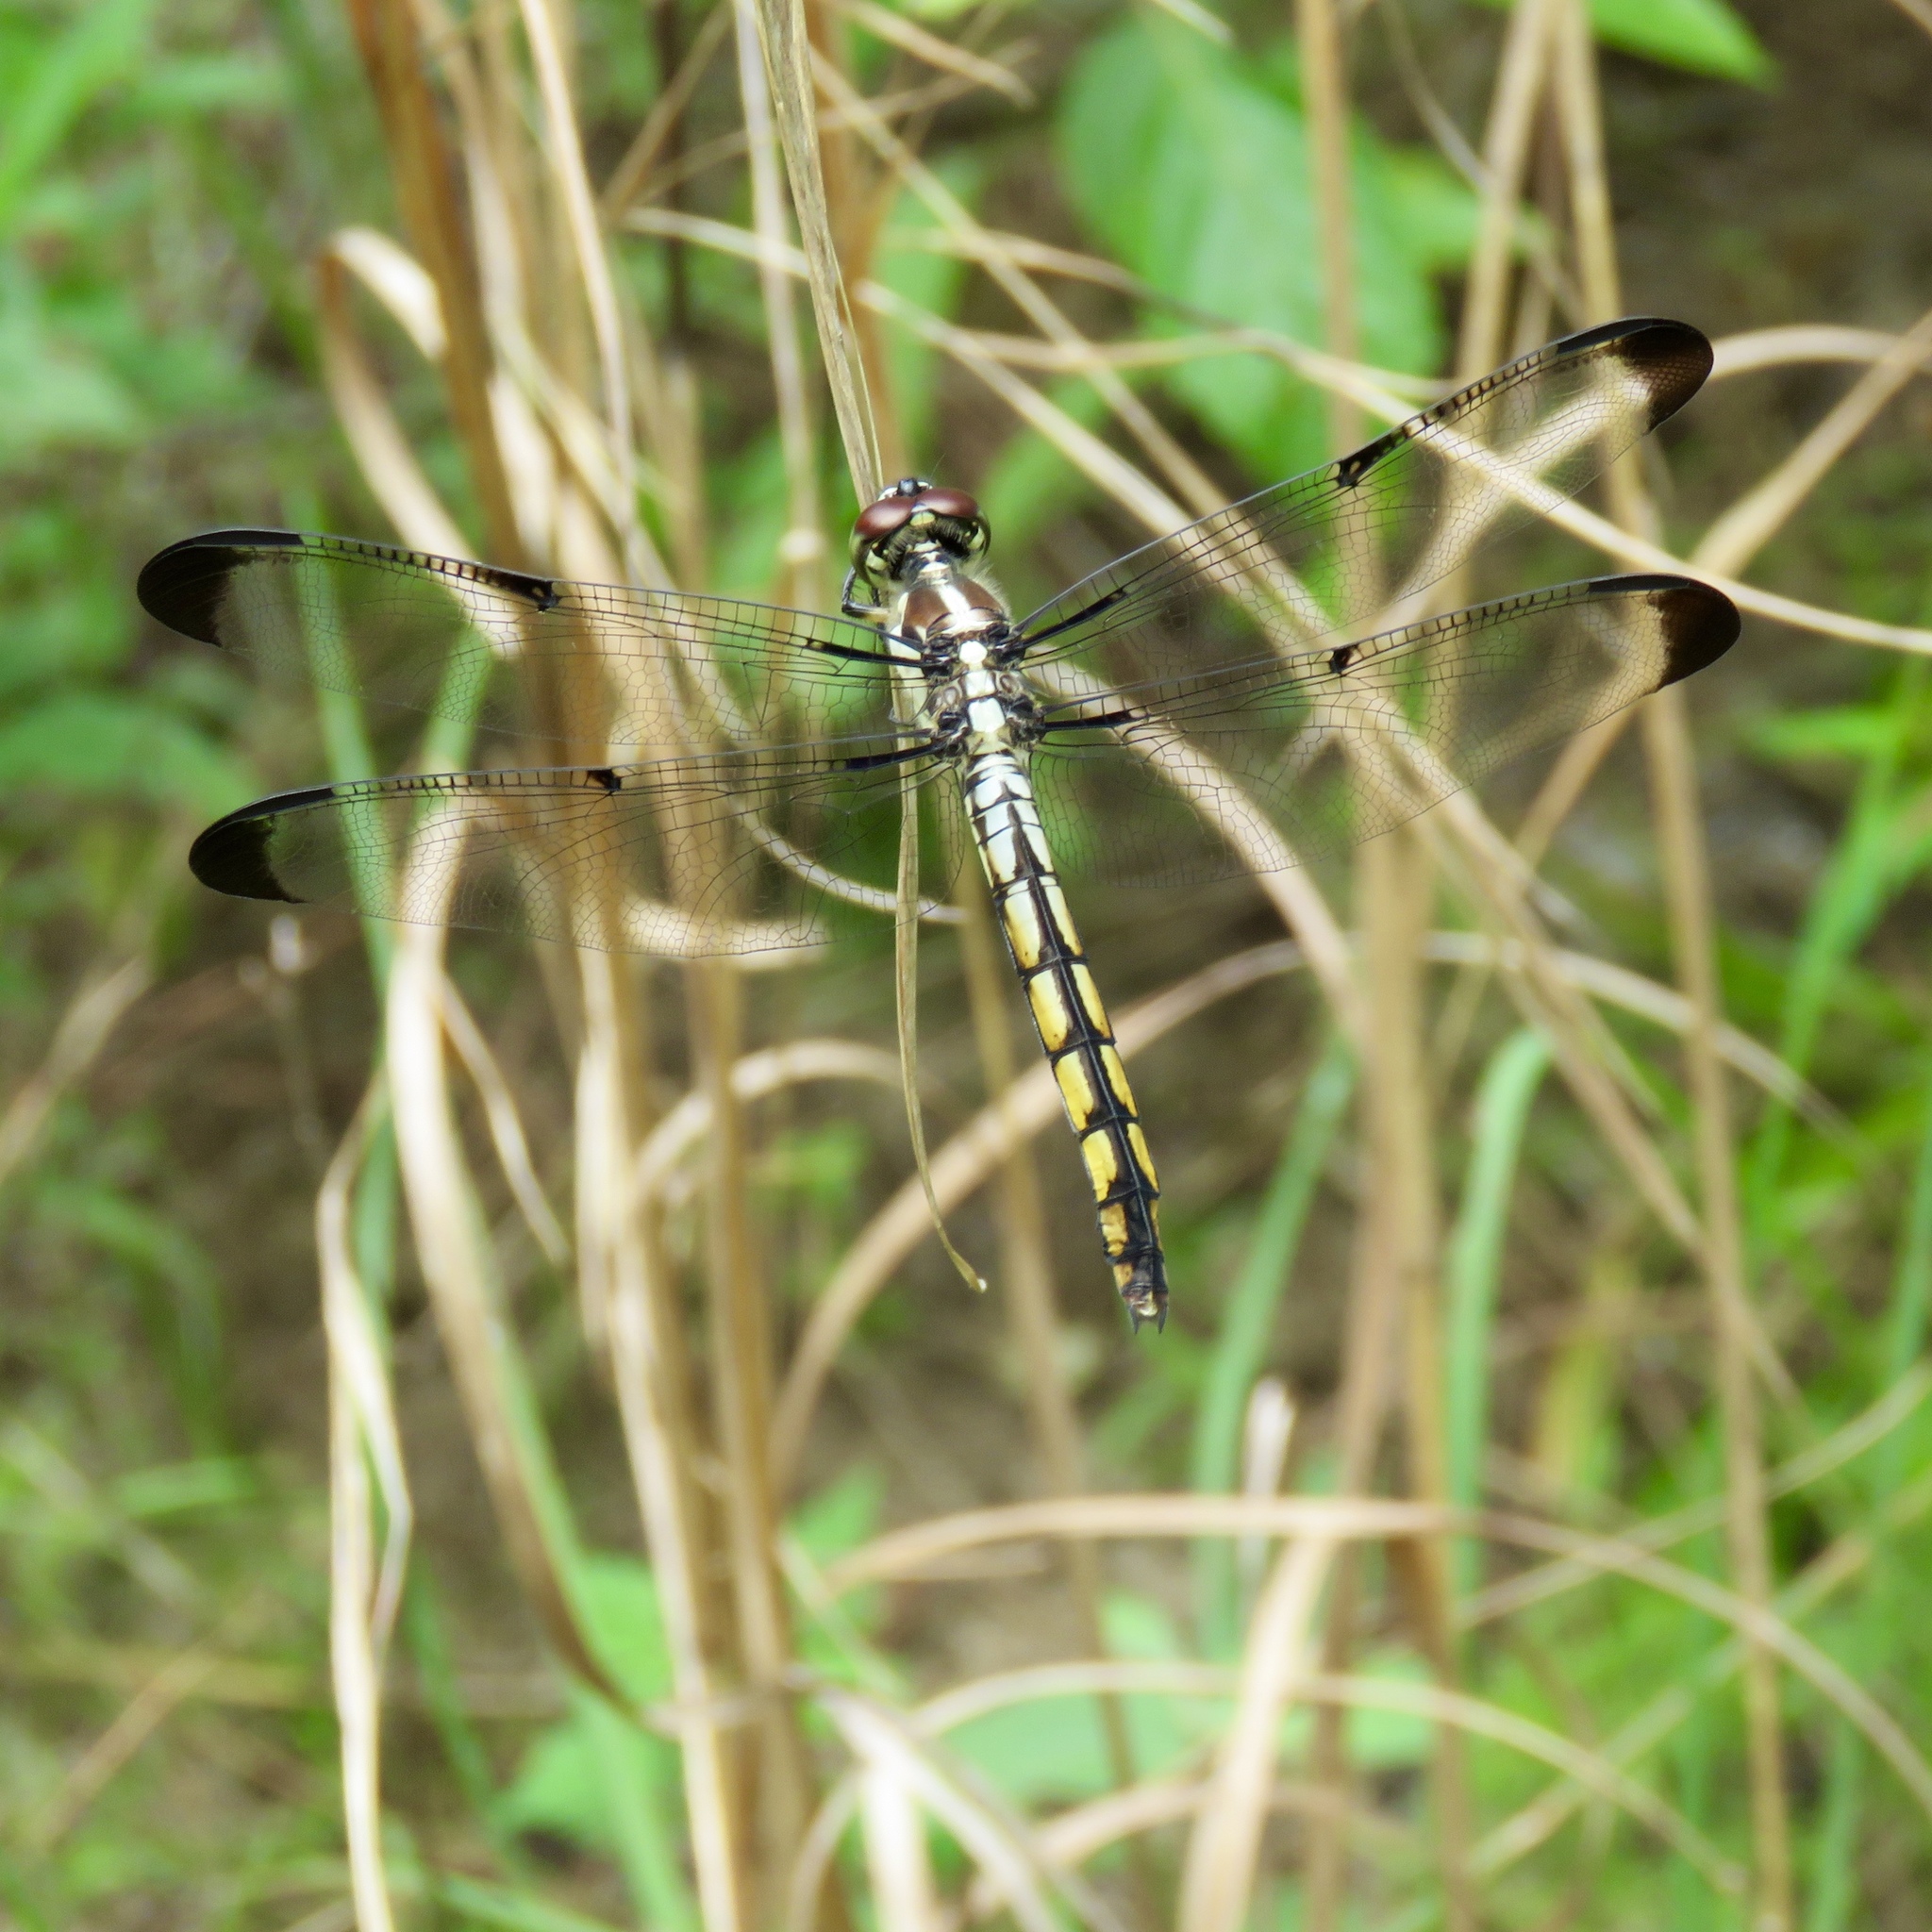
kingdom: Animalia
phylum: Arthropoda
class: Insecta
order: Odonata
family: Libellulidae
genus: Libellula
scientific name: Libellula vibrans
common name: Great blue skimmer
